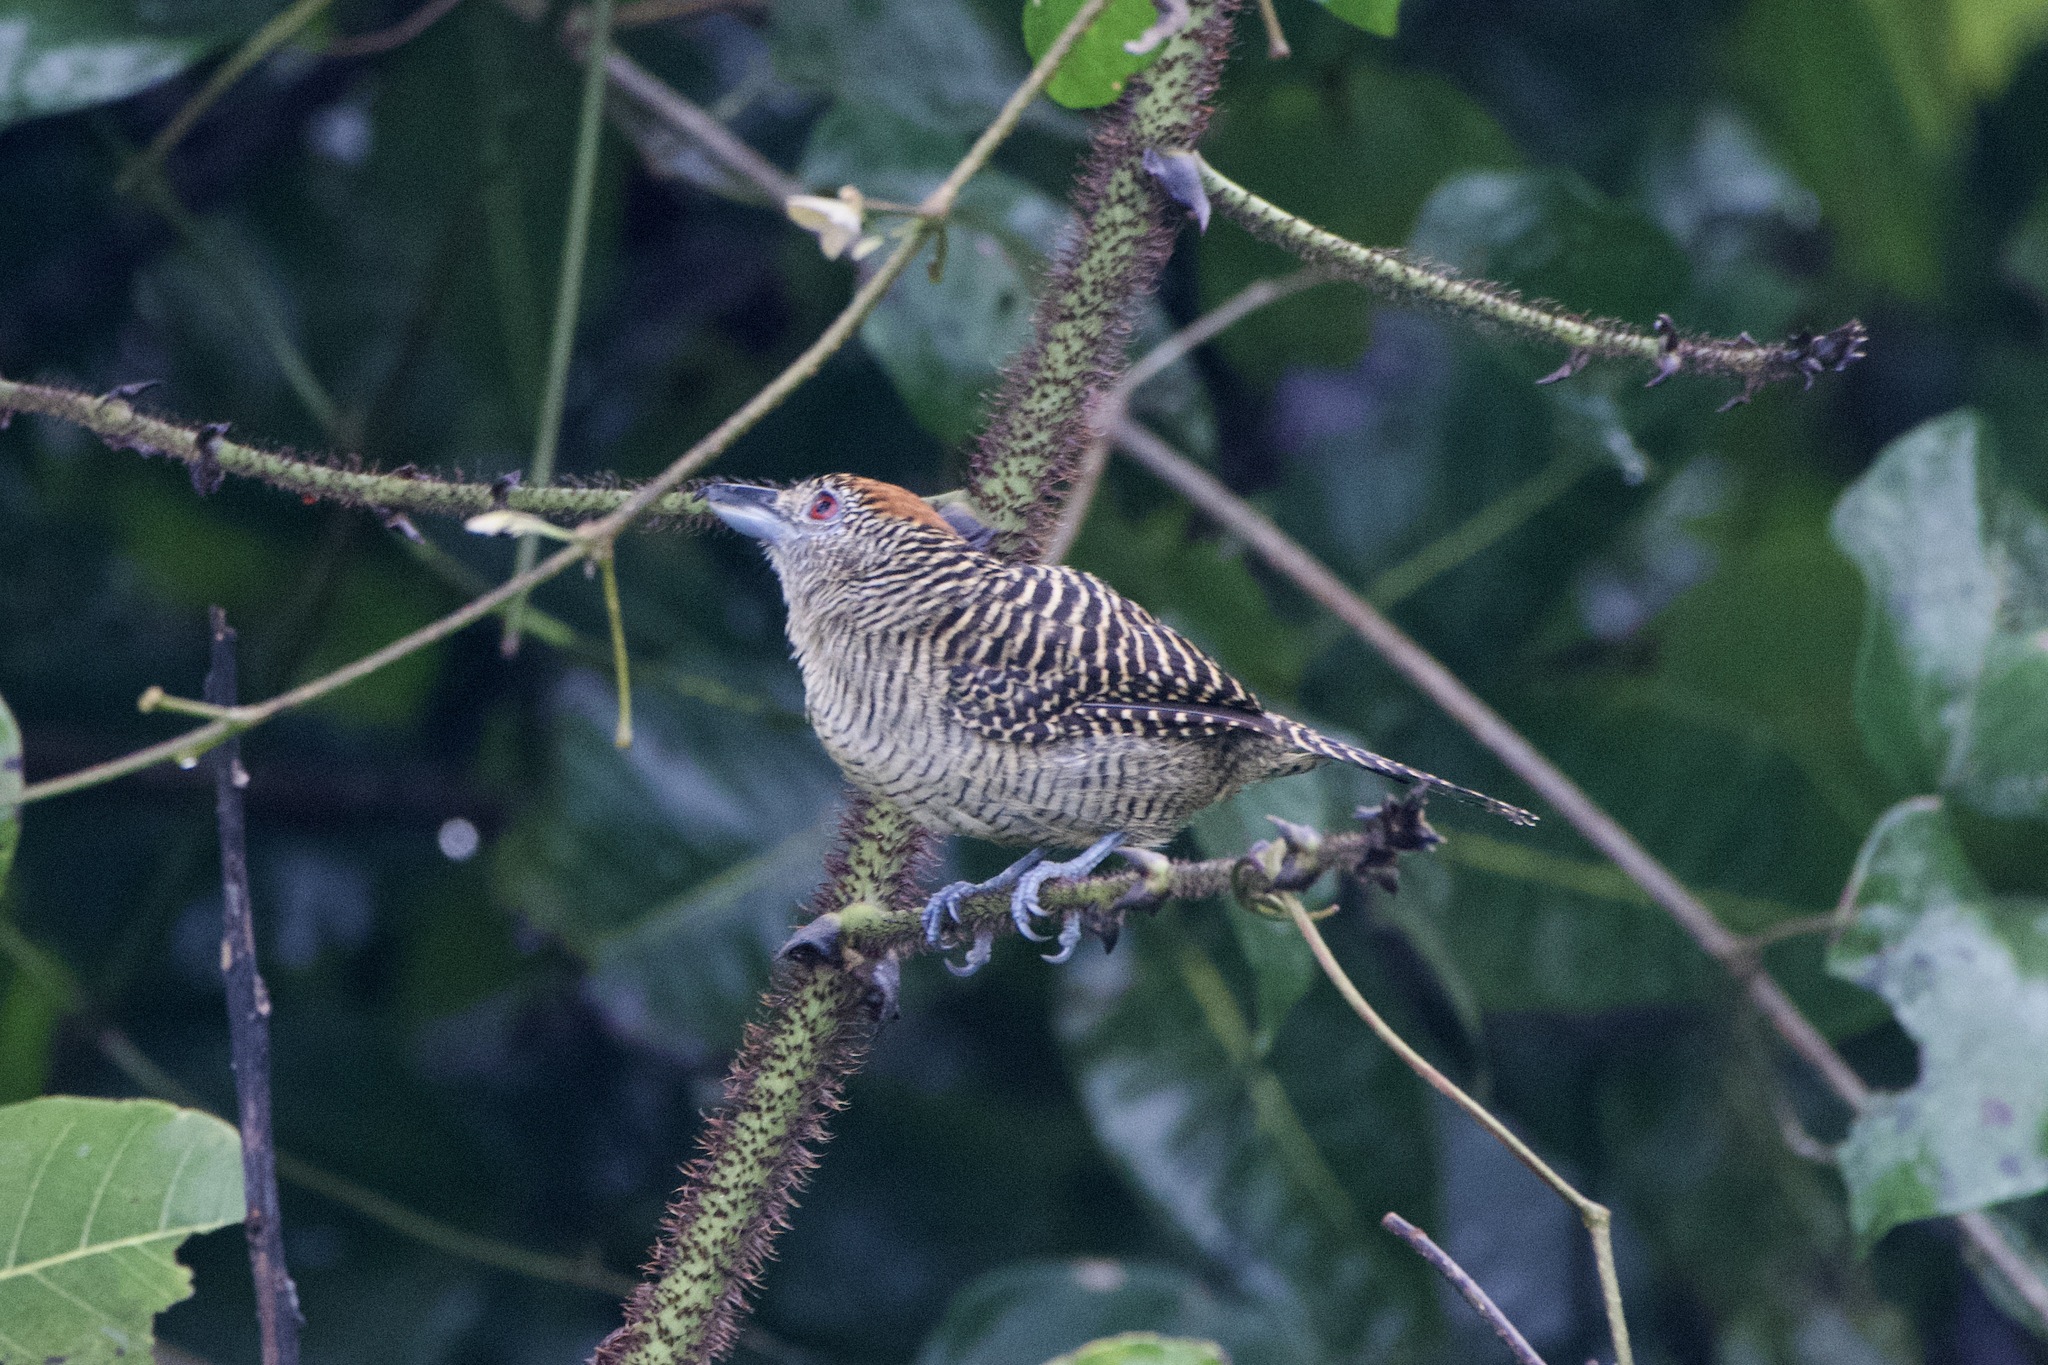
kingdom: Animalia
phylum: Chordata
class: Aves
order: Passeriformes
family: Thamnophilidae
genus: Cymbilaimus
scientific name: Cymbilaimus lineatus
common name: Fasciated antshrike
